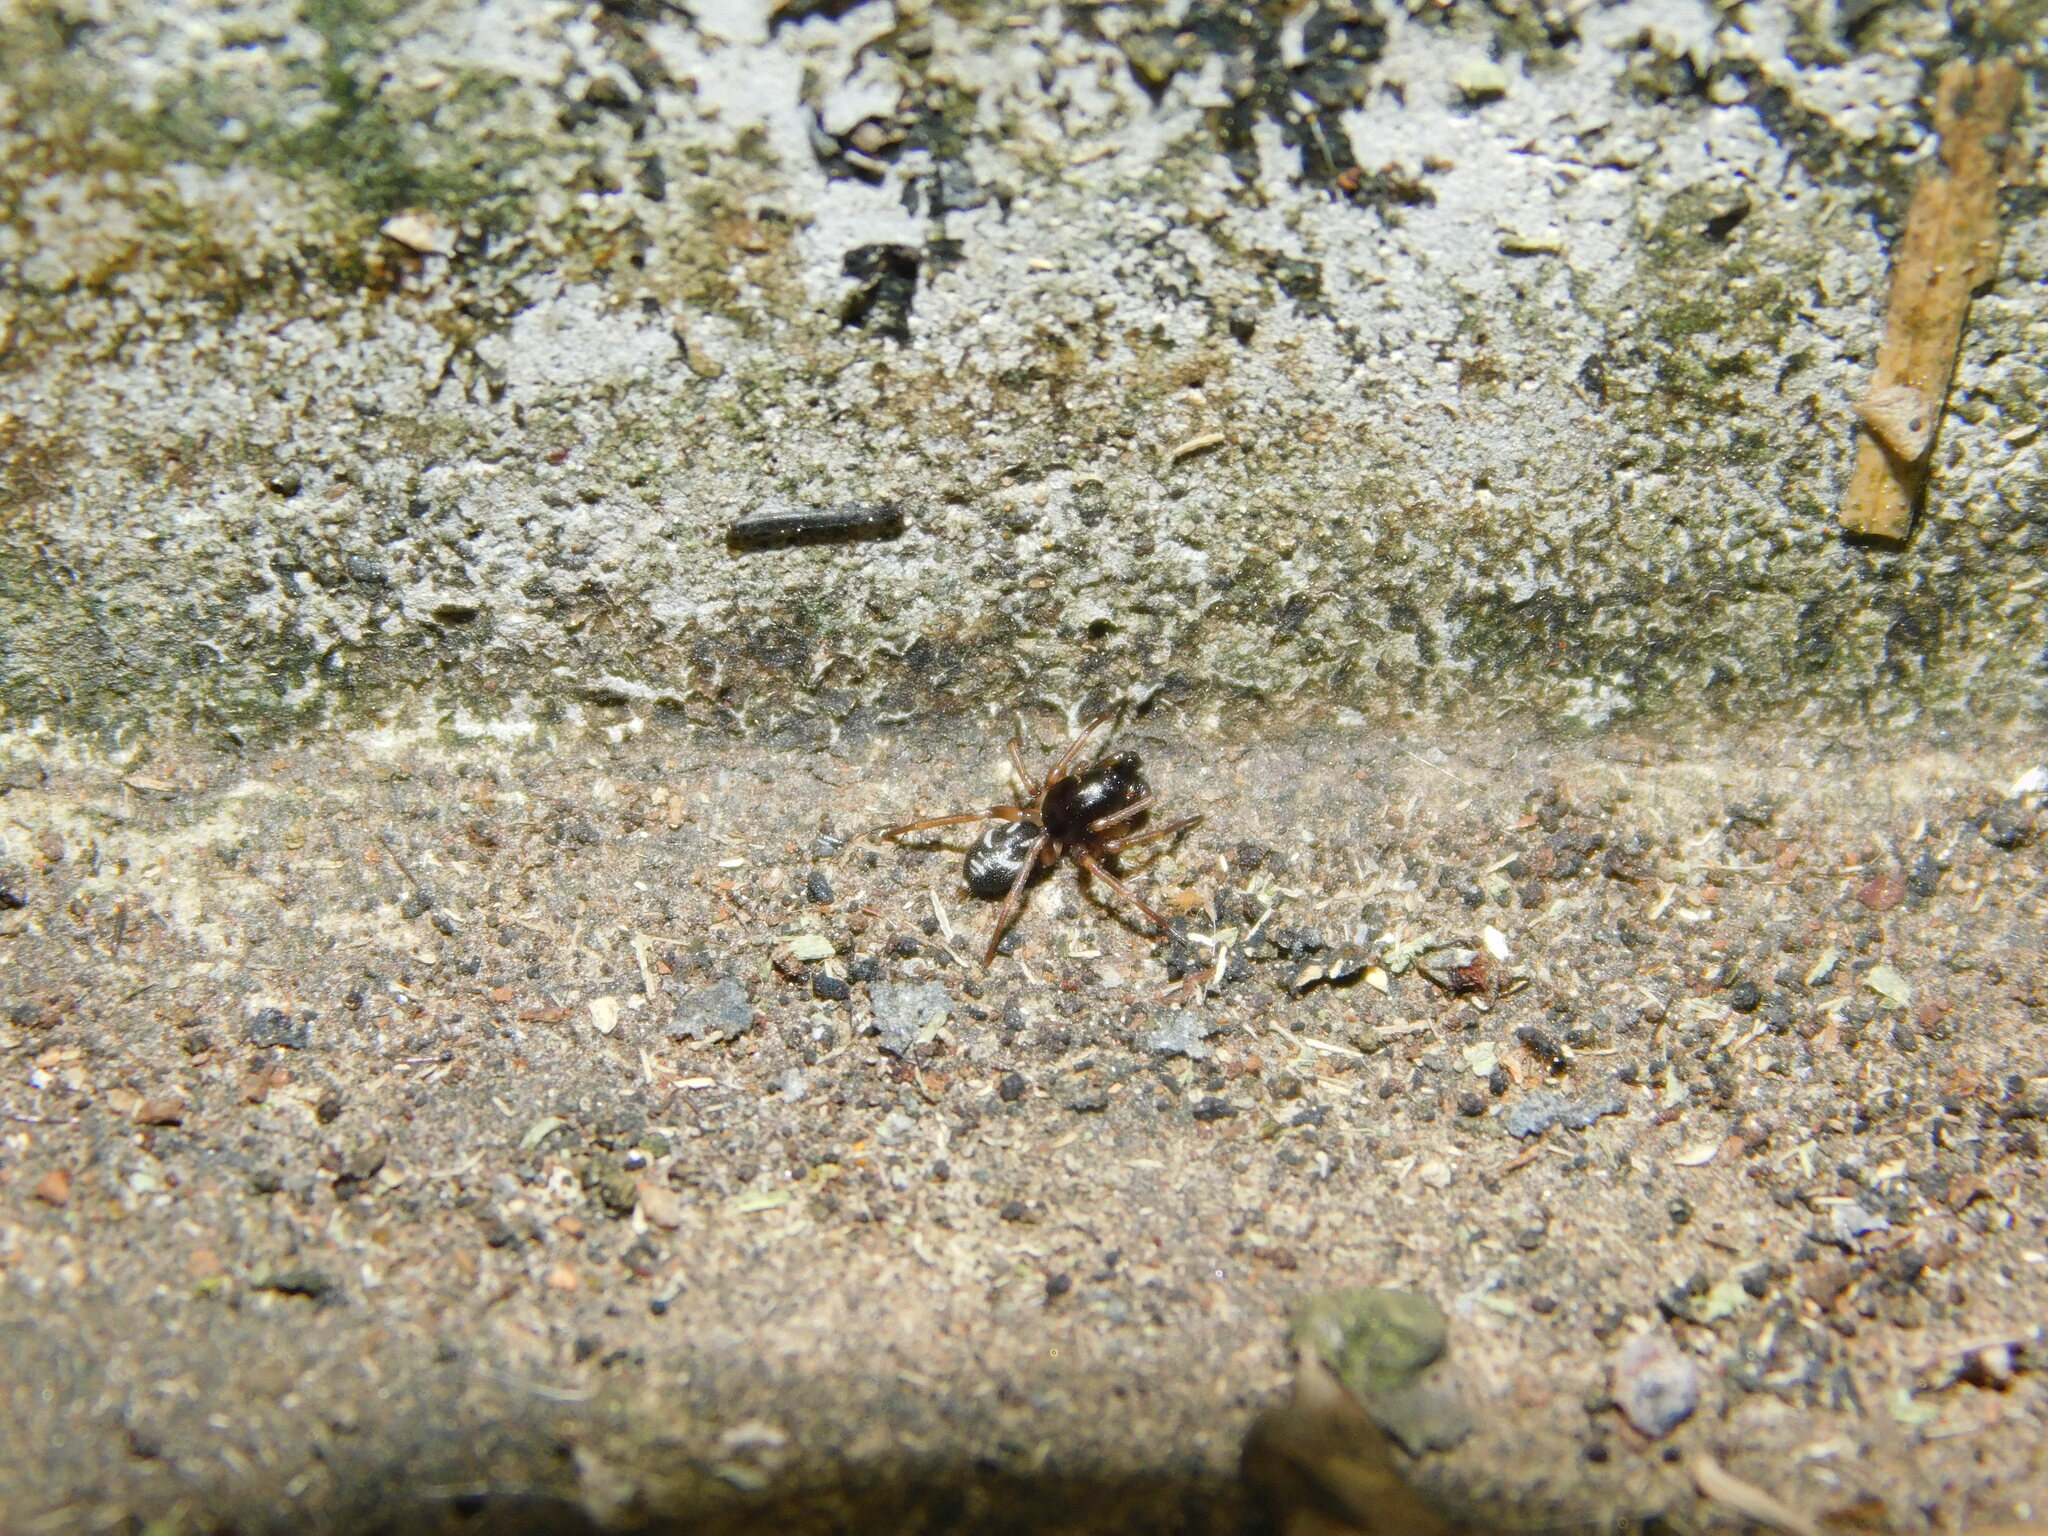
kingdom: Animalia
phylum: Arthropoda
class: Arachnida
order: Araneae
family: Zodariidae
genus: Asceua
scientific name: Asceua dispar
